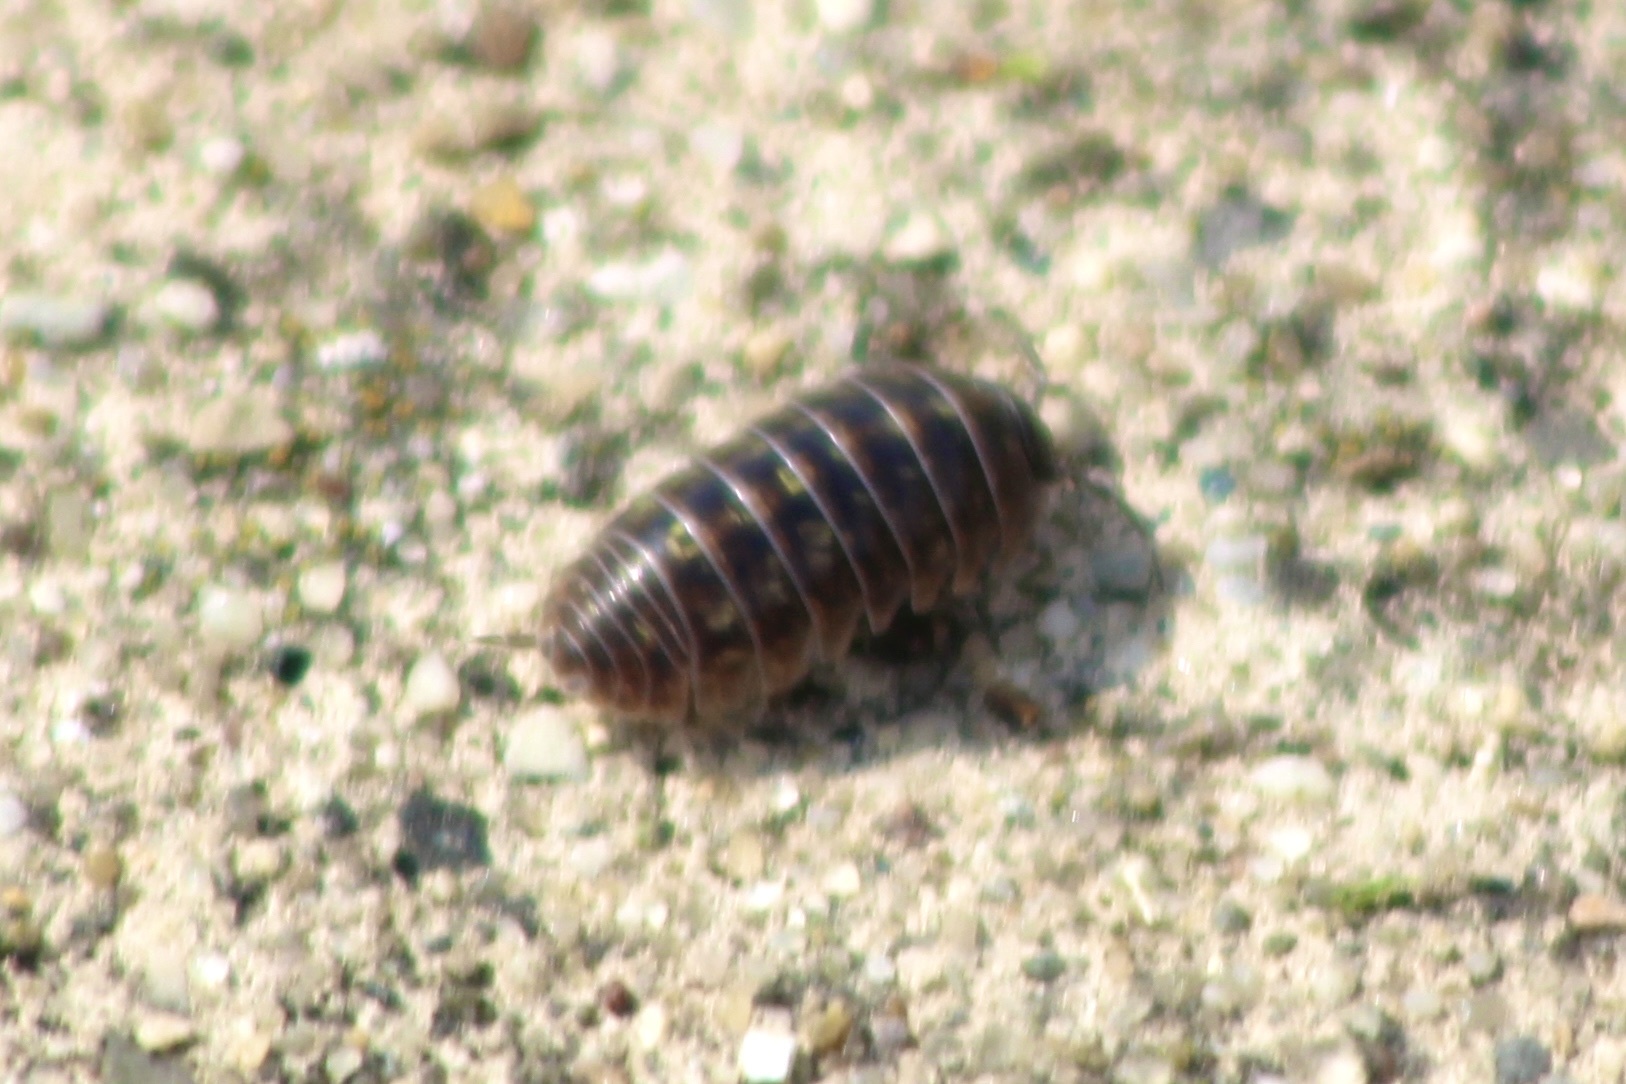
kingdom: Animalia
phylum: Arthropoda
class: Malacostraca
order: Isopoda
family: Armadillidiidae
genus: Armadillidium
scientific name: Armadillidium vulgare
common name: Common pill woodlouse
